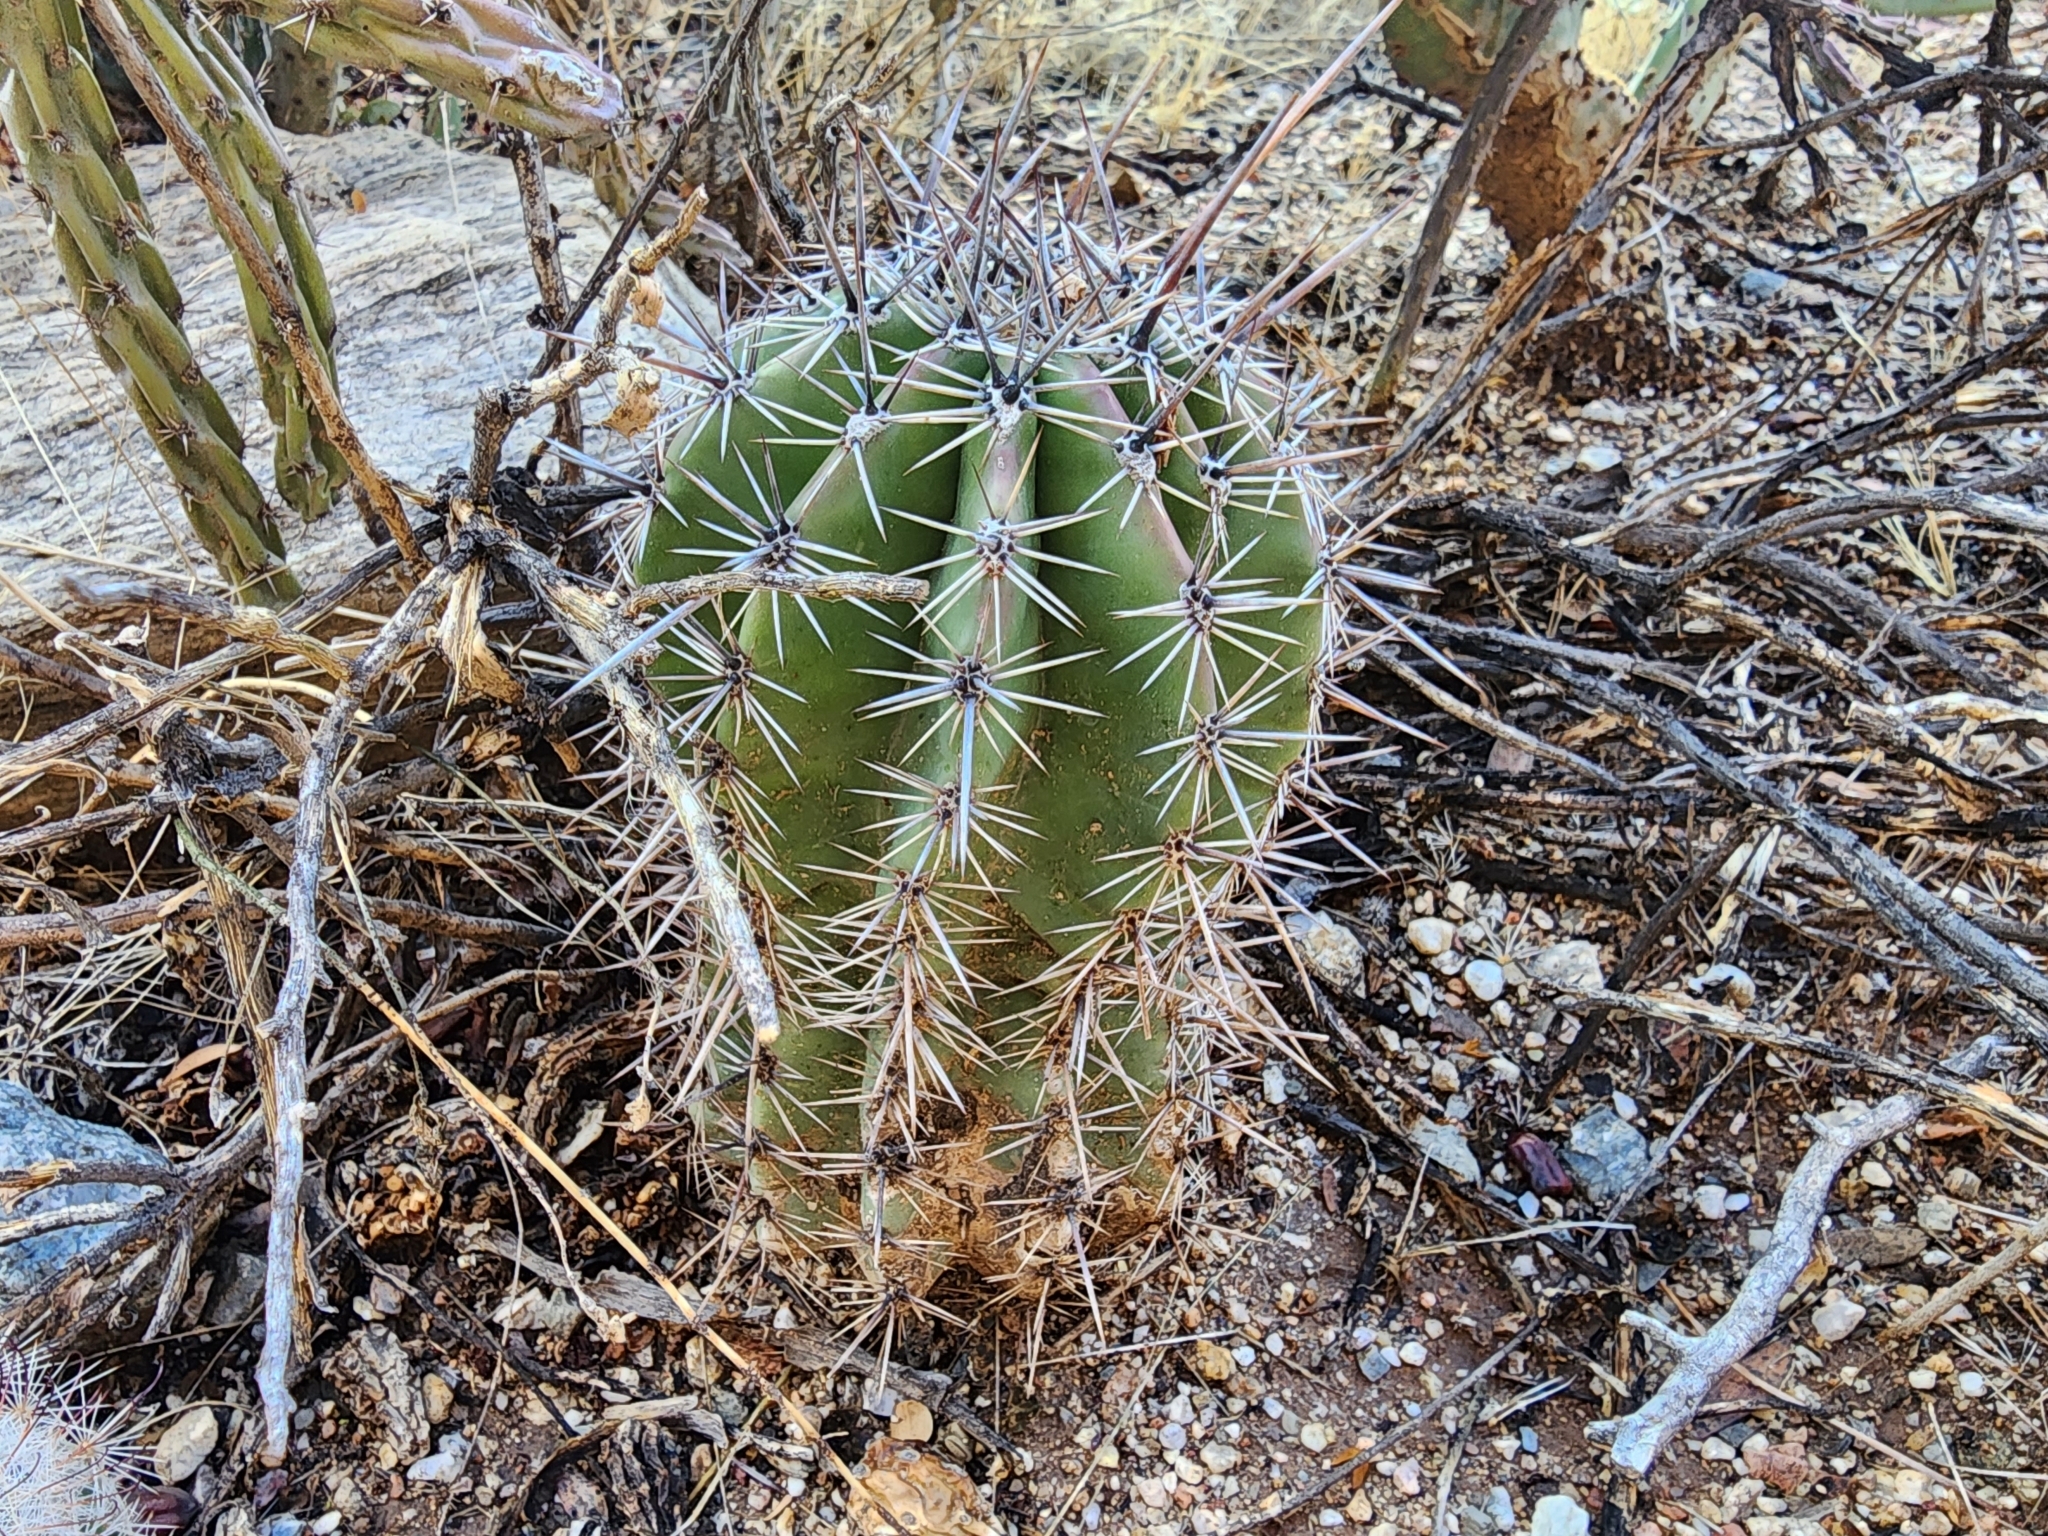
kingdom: Plantae
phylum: Tracheophyta
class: Magnoliopsida
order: Caryophyllales
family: Cactaceae
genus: Carnegiea
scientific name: Carnegiea gigantea
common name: Saguaro
